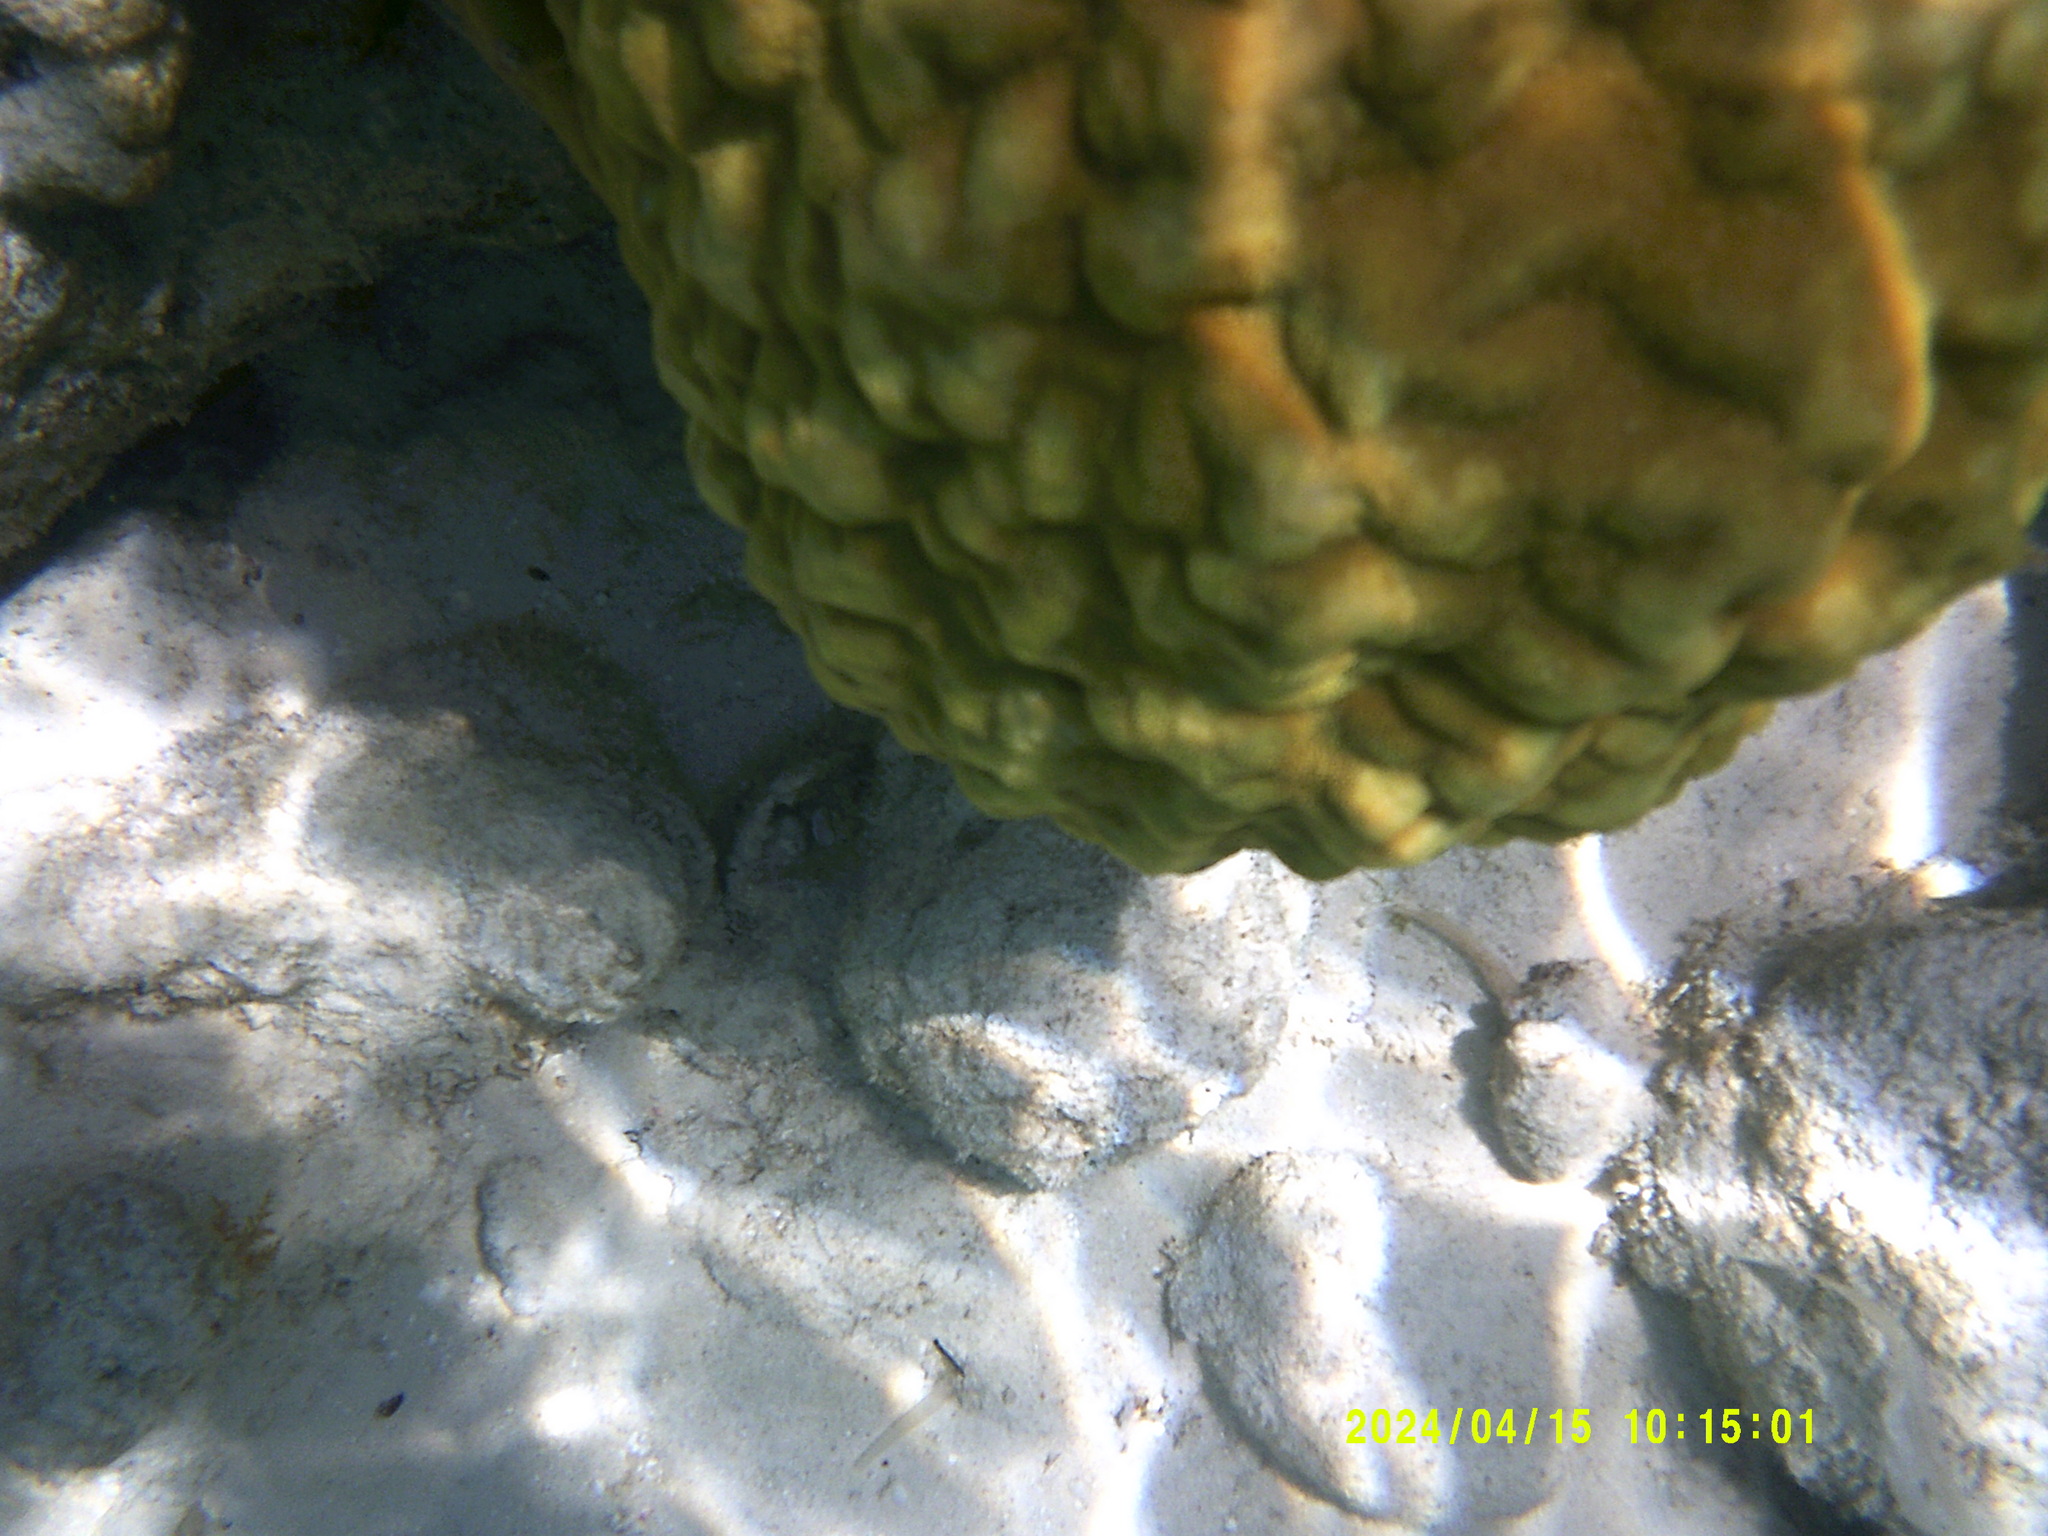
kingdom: Animalia
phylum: Cnidaria
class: Anthozoa
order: Scleractinia
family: Poritidae
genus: Porites
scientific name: Porites astreoides
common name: Mustard hill coral
